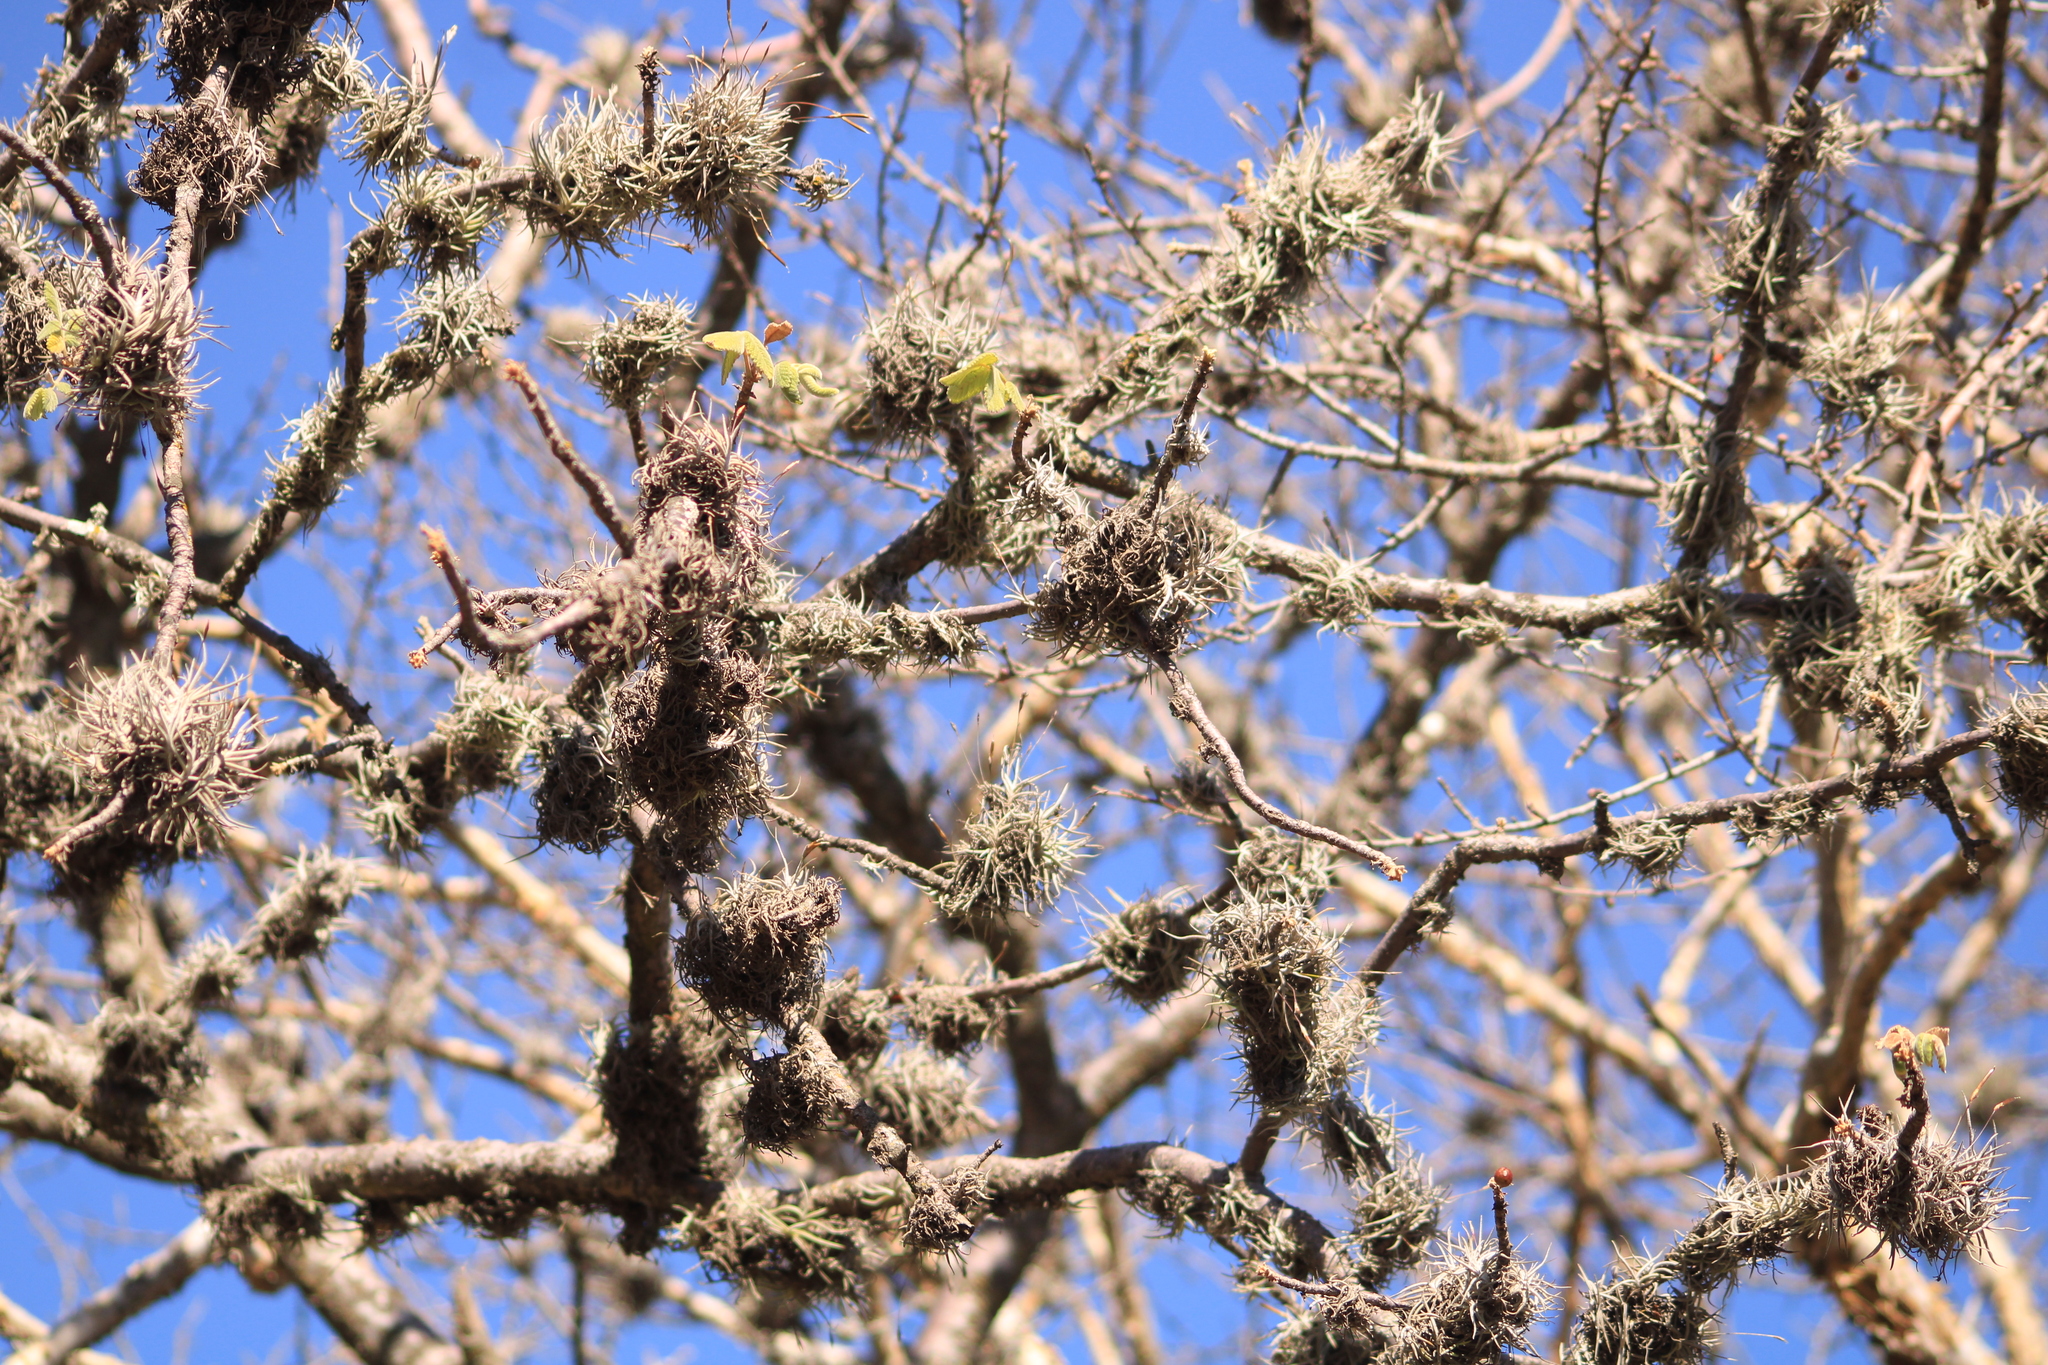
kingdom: Plantae
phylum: Tracheophyta
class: Liliopsida
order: Poales
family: Bromeliaceae
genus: Tillandsia
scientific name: Tillandsia recurvata
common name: Small ballmoss
